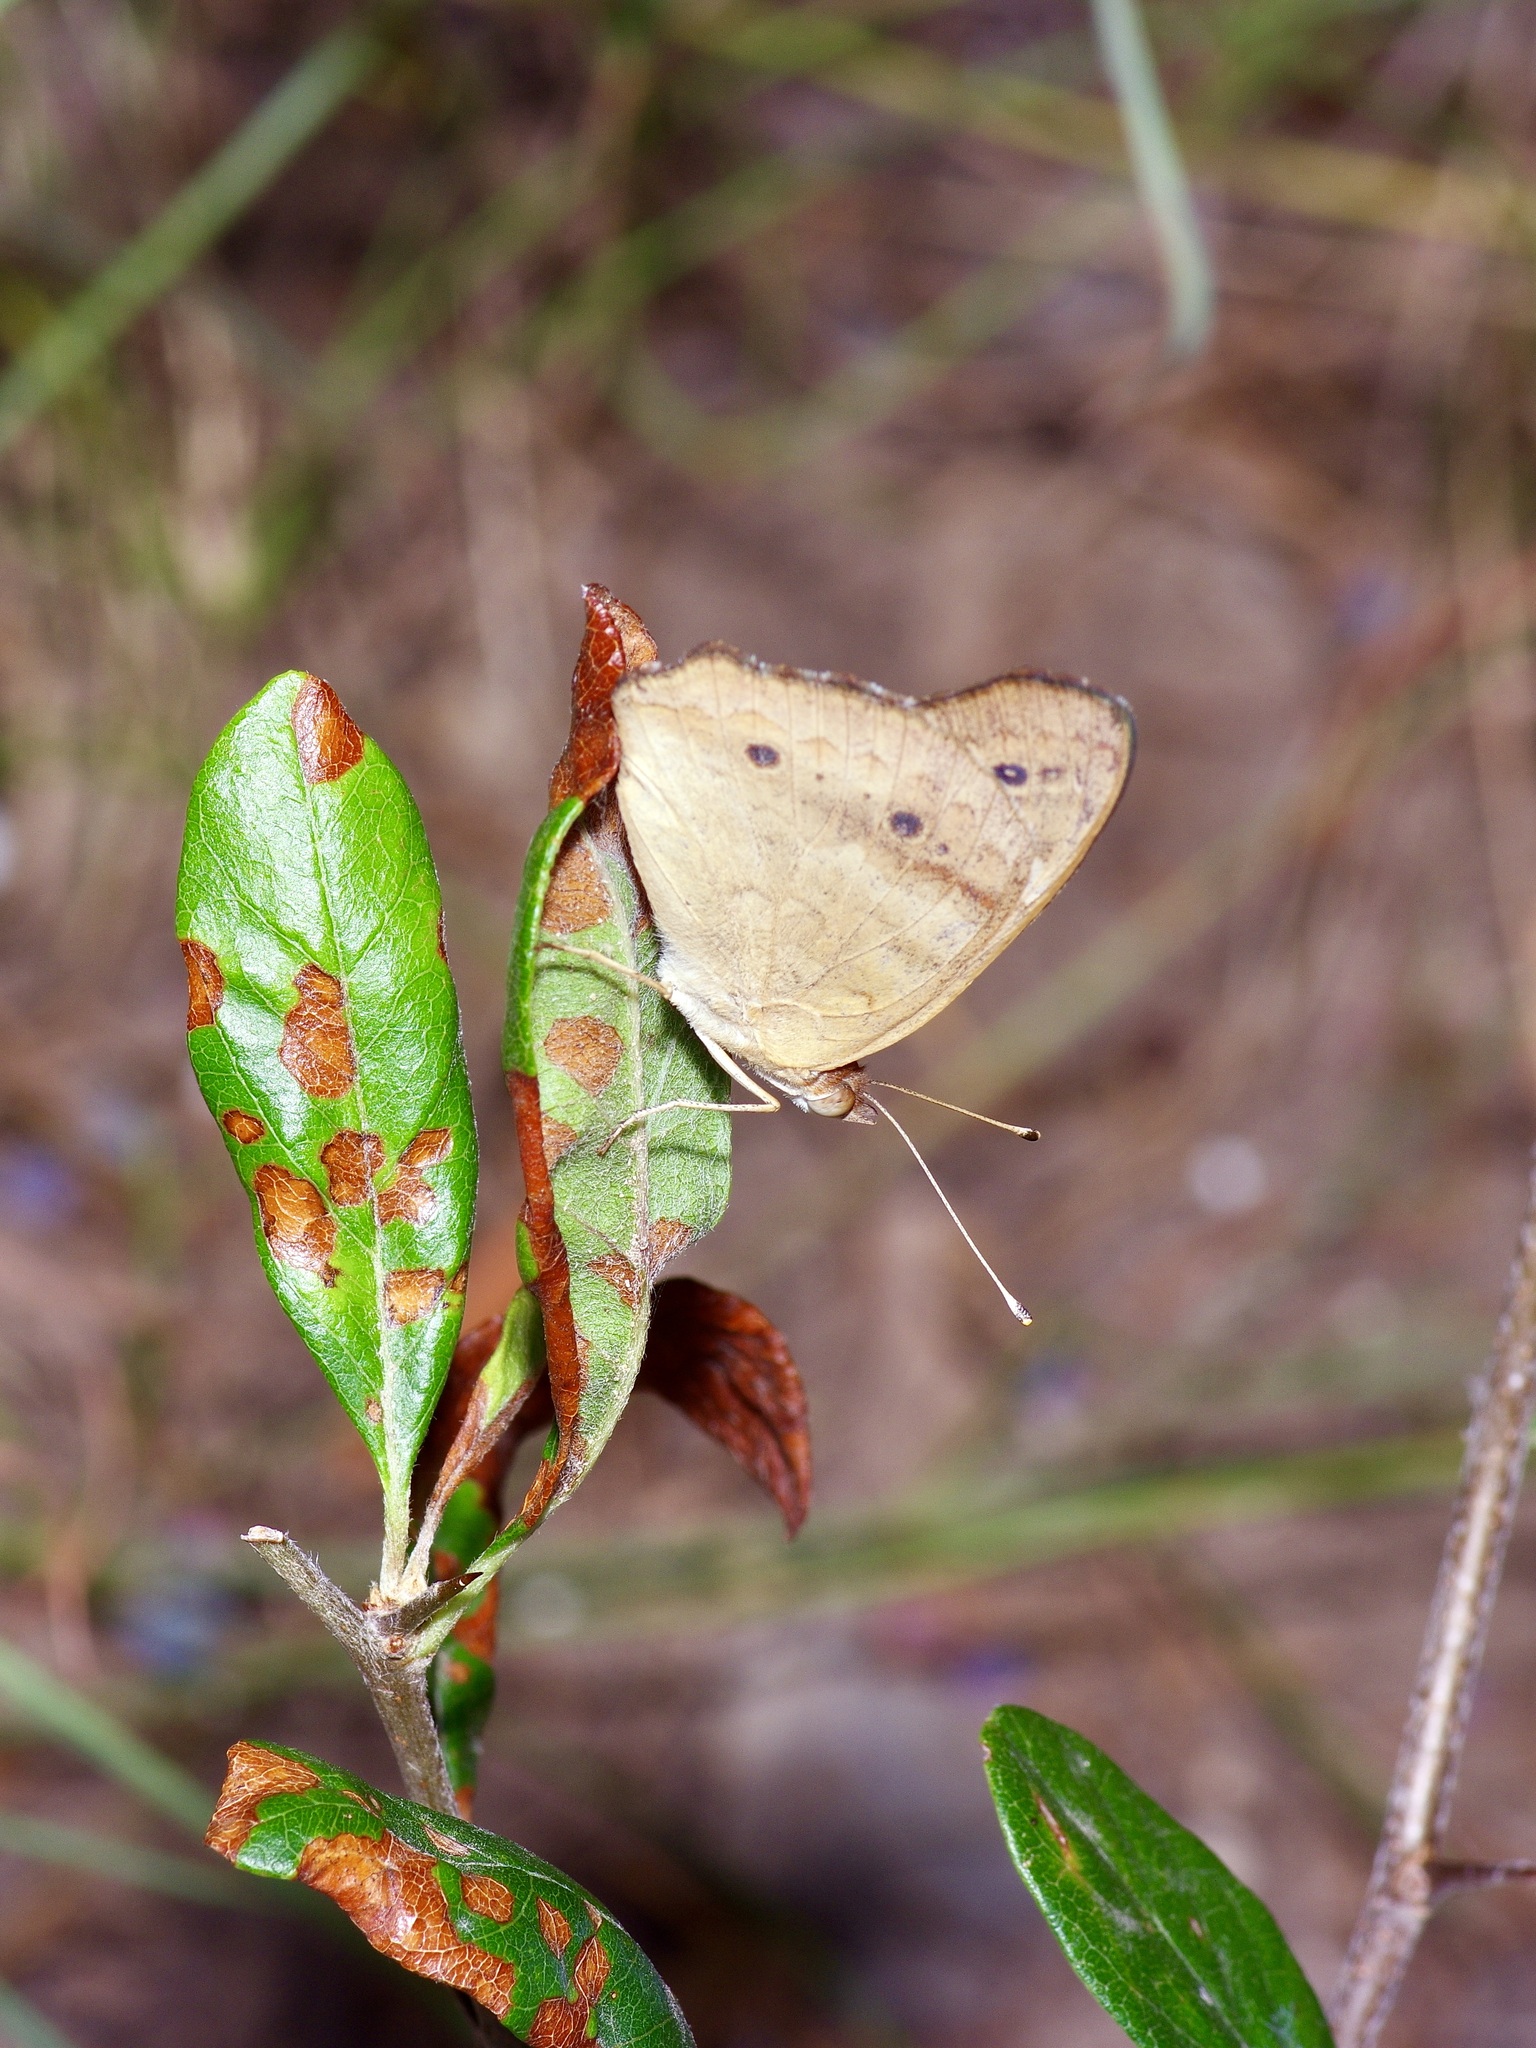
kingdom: Animalia
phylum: Arthropoda
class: Insecta
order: Lepidoptera
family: Nymphalidae
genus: Junonia
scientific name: Junonia coenia
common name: Common buckeye
